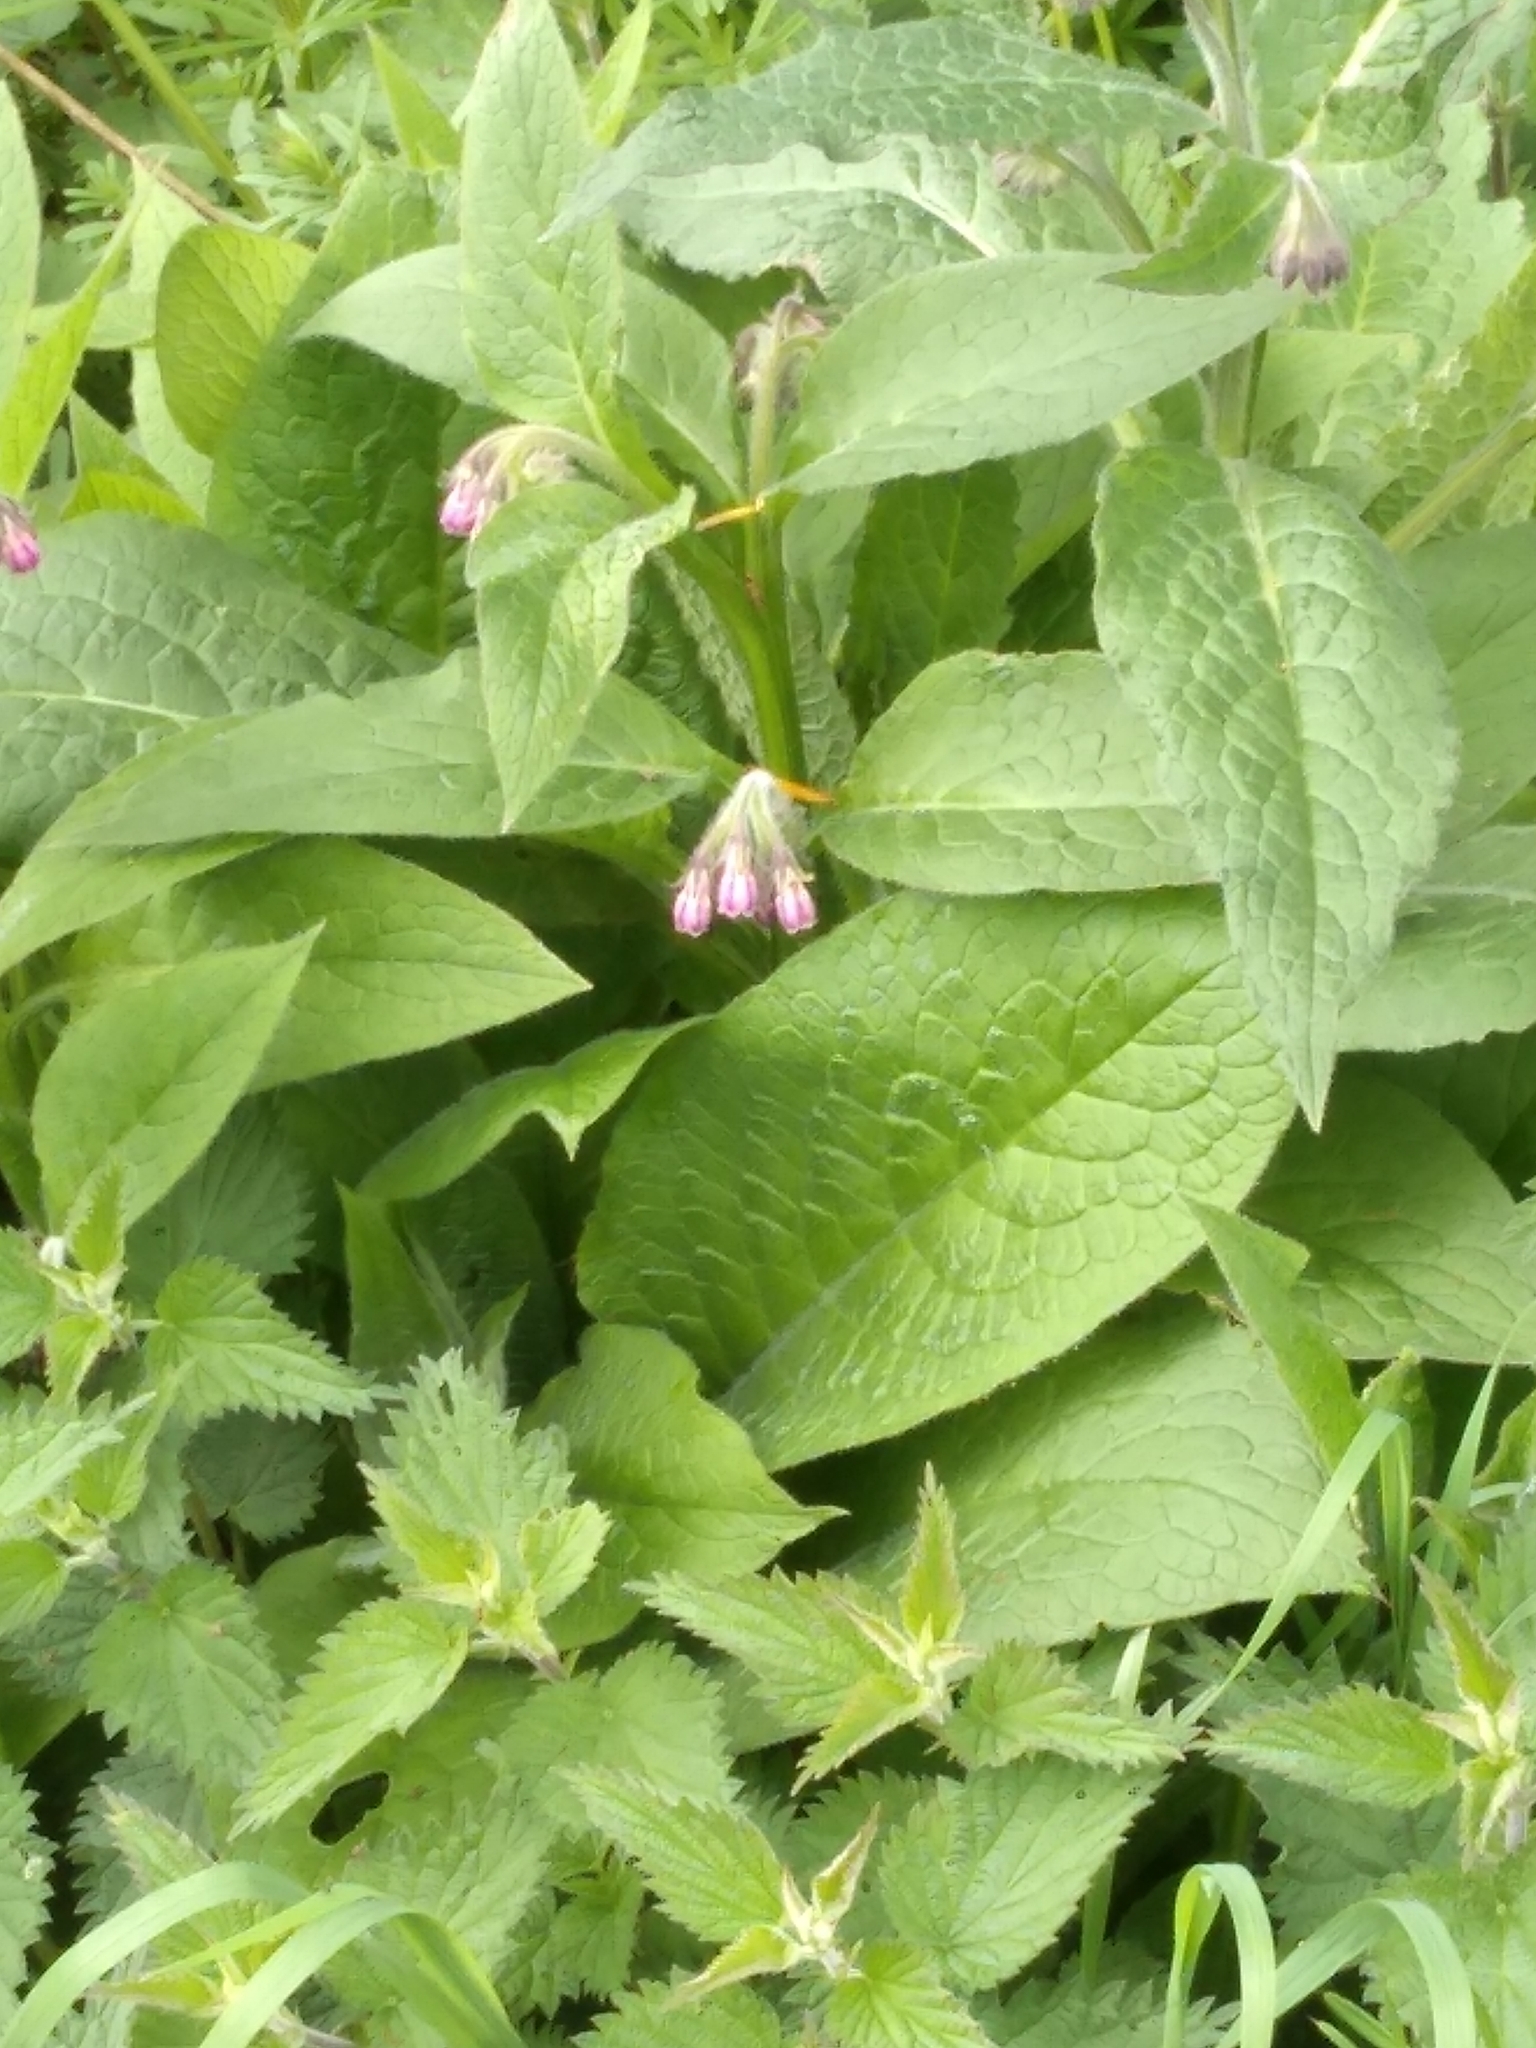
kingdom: Plantae
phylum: Tracheophyta
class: Magnoliopsida
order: Boraginales
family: Boraginaceae
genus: Symphytum
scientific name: Symphytum officinale
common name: Common comfrey
